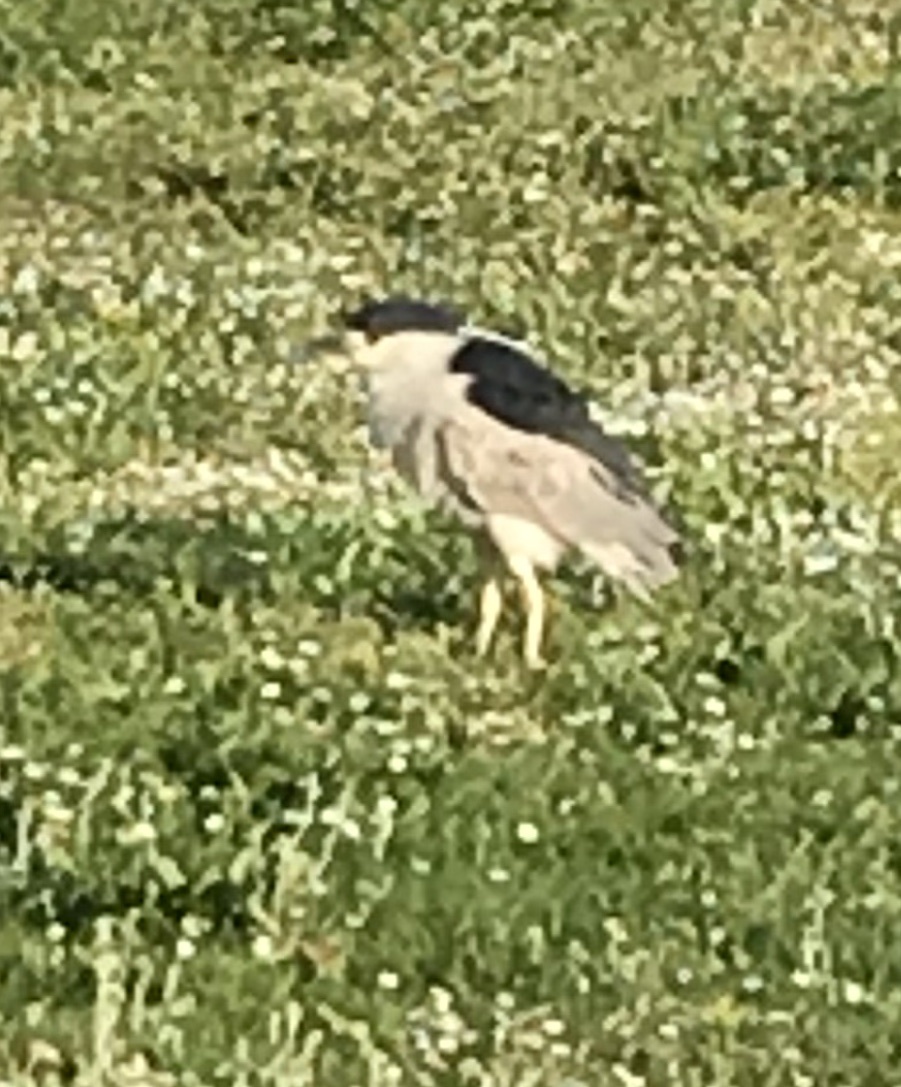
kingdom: Animalia
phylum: Chordata
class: Aves
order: Pelecaniformes
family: Ardeidae
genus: Nycticorax
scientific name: Nycticorax nycticorax
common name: Black-crowned night heron
